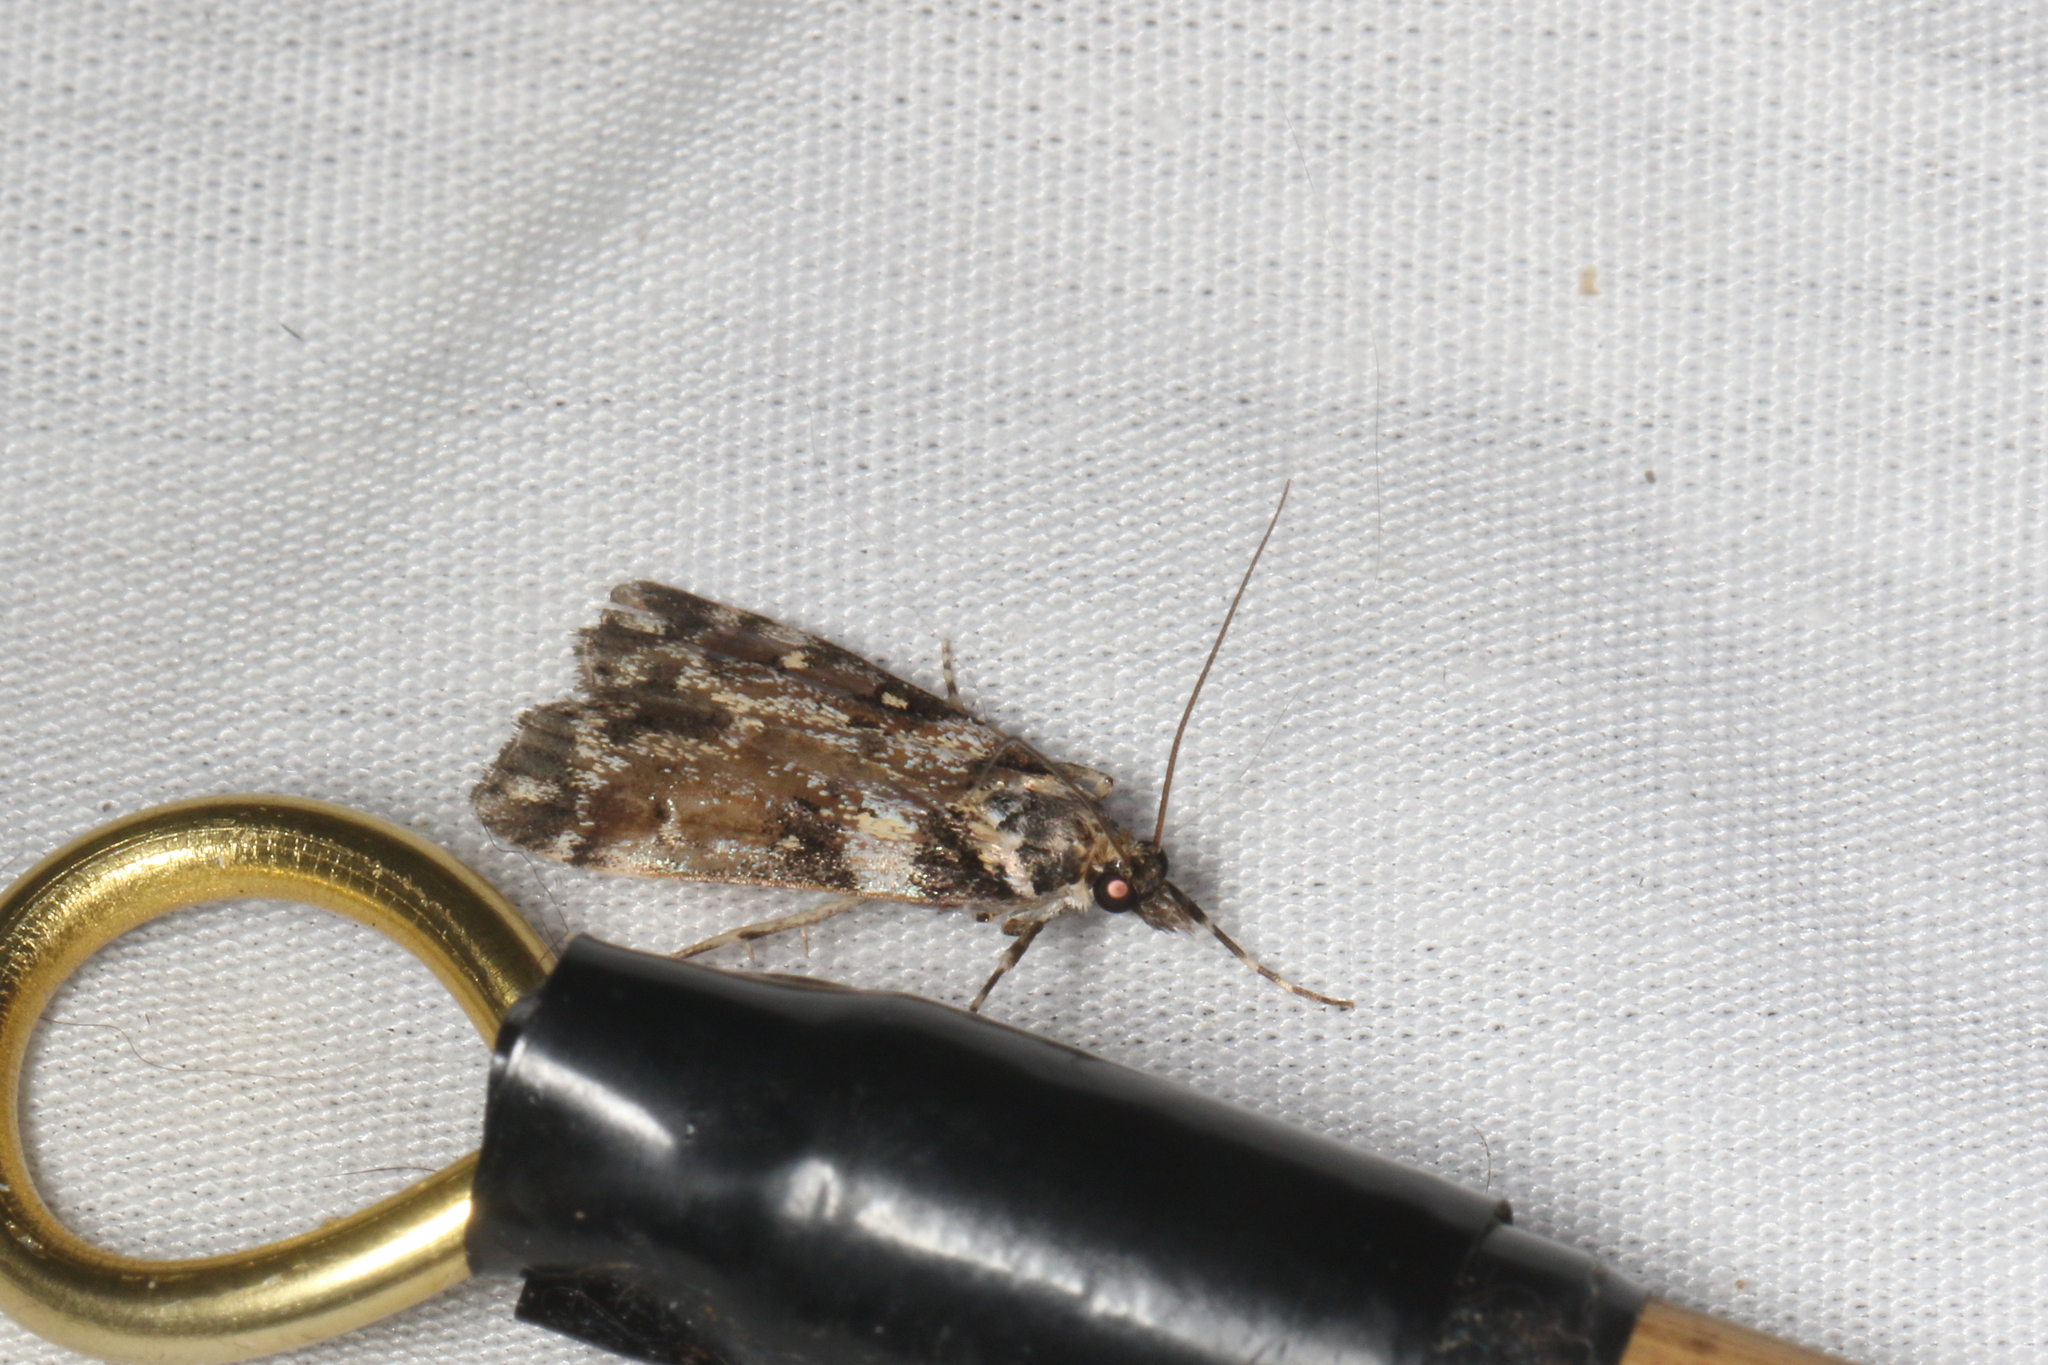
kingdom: Animalia
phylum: Arthropoda
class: Insecta
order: Lepidoptera
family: Crambidae
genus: Eudonia
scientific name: Eudonia diphtheralis
